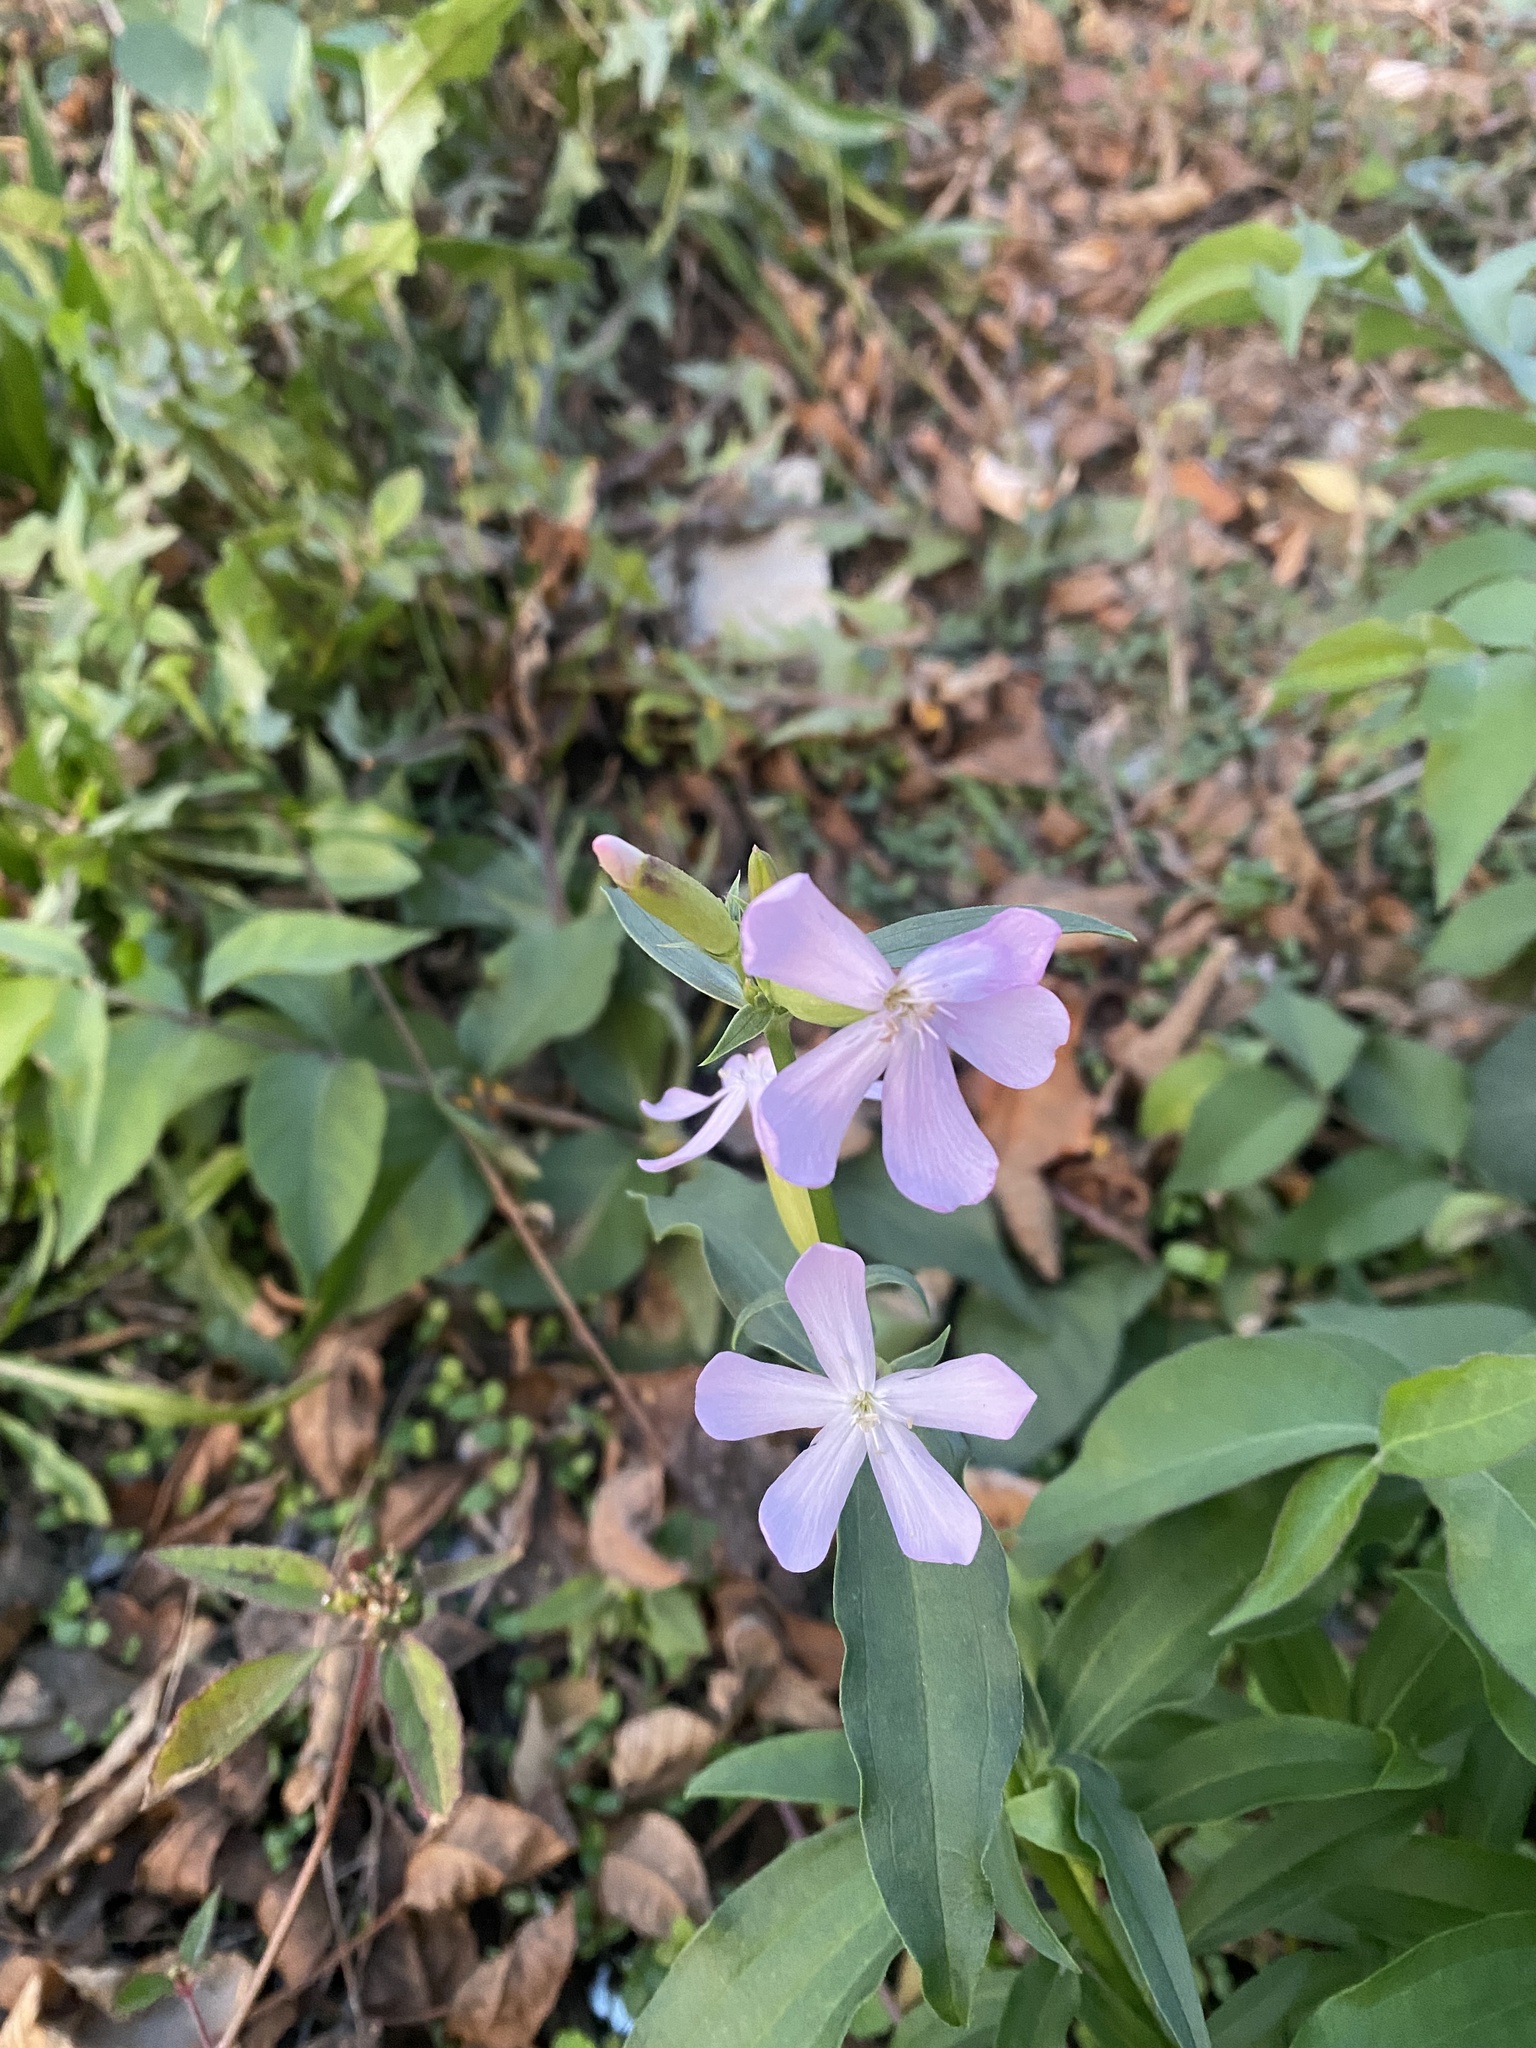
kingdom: Plantae
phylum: Tracheophyta
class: Magnoliopsida
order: Caryophyllales
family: Caryophyllaceae
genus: Saponaria
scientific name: Saponaria officinalis
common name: Soapwort
